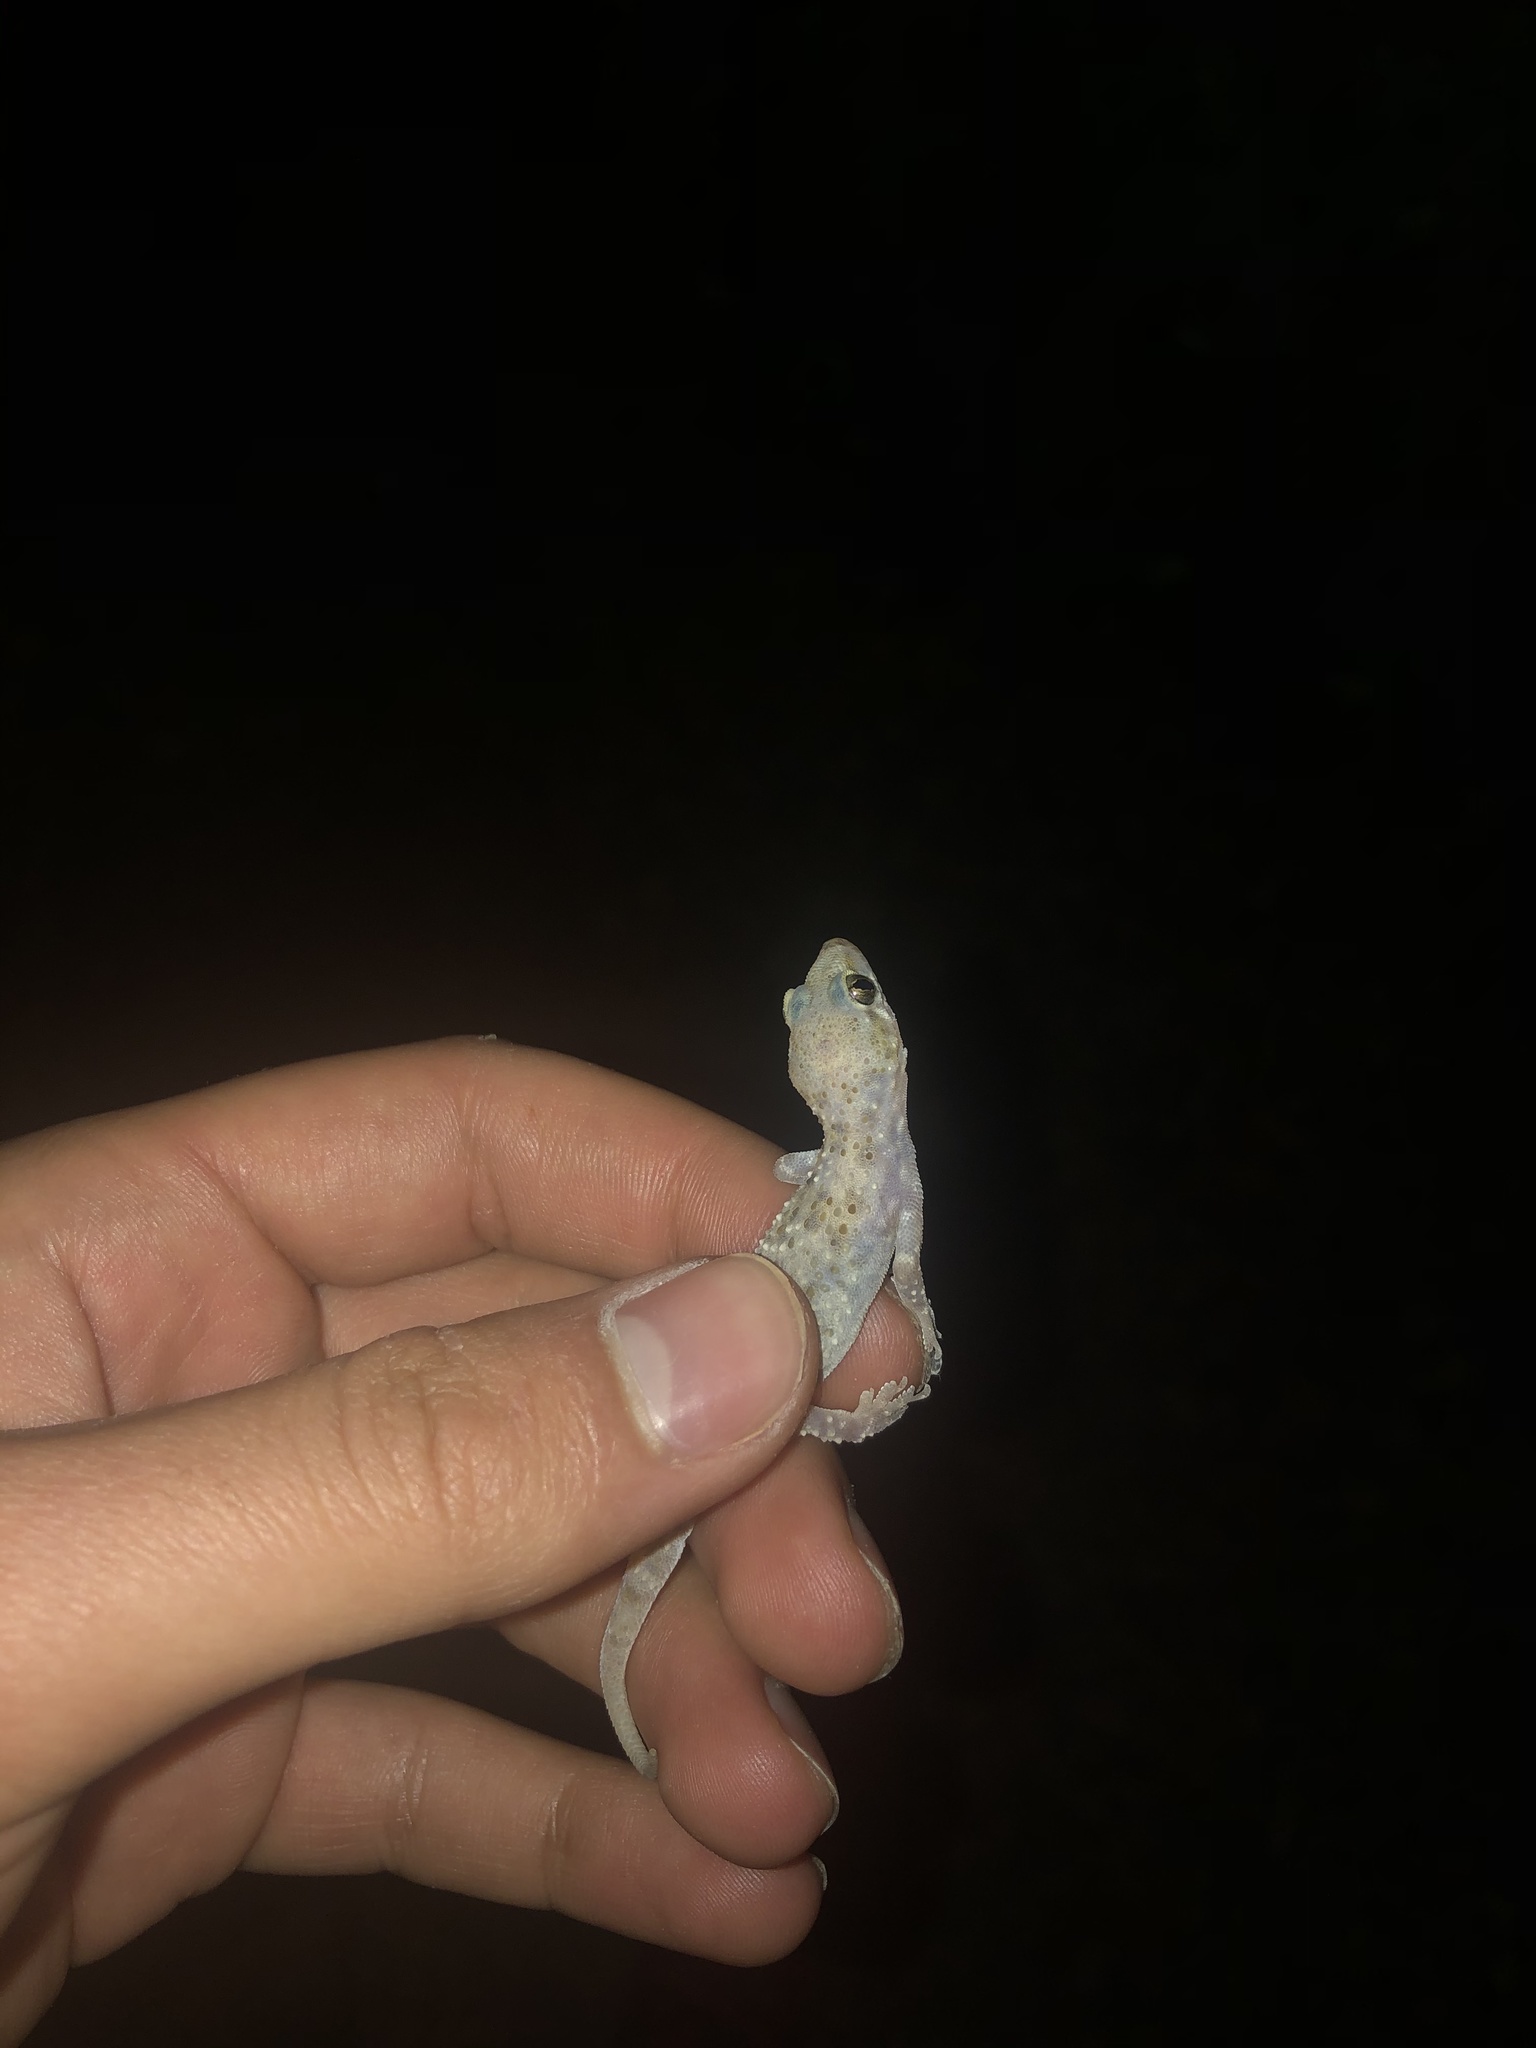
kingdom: Animalia
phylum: Chordata
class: Squamata
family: Gekkonidae
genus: Hemidactylus
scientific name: Hemidactylus turcicus
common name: Turkish gecko
